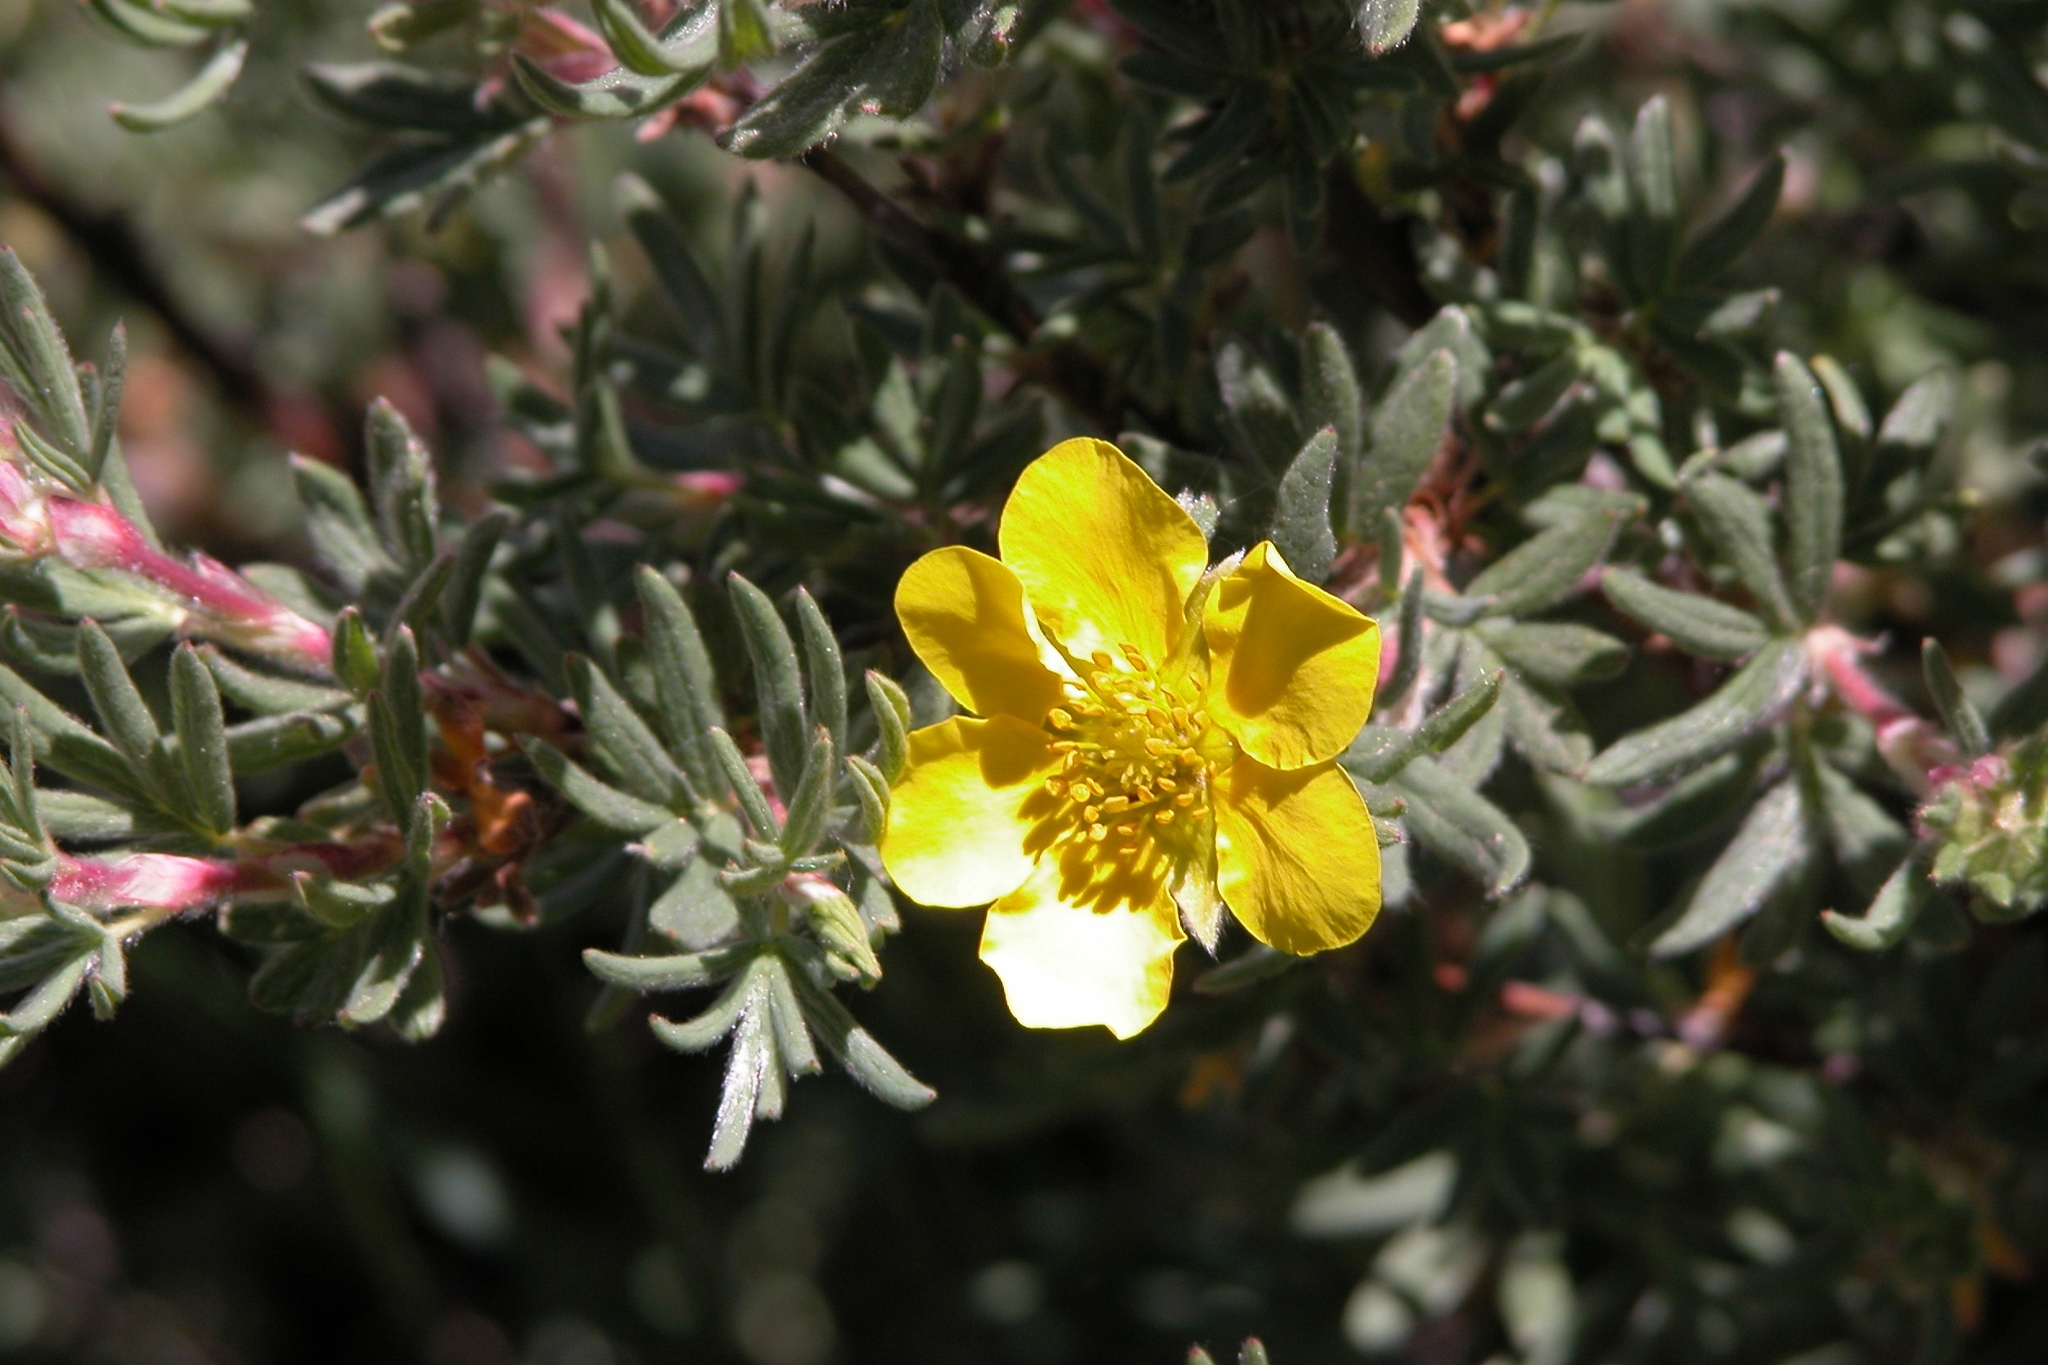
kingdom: Plantae
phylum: Tracheophyta
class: Magnoliopsida
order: Rosales
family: Rosaceae
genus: Dasiphora
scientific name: Dasiphora fruticosa
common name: Shrubby cinquefoil
